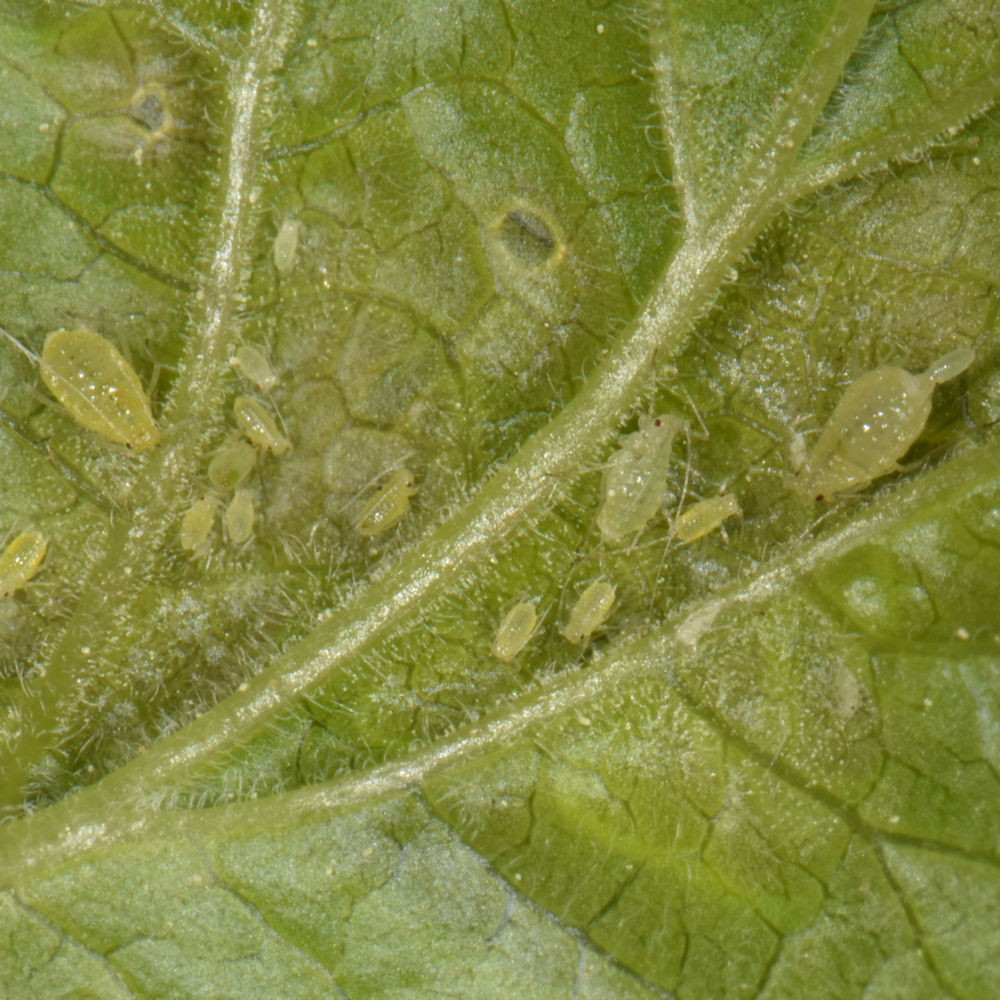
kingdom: Animalia
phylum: Arthropoda
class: Insecta
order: Hemiptera
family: Aphididae
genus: Cryptomyzus
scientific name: Cryptomyzus ribis
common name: Currant aphid
